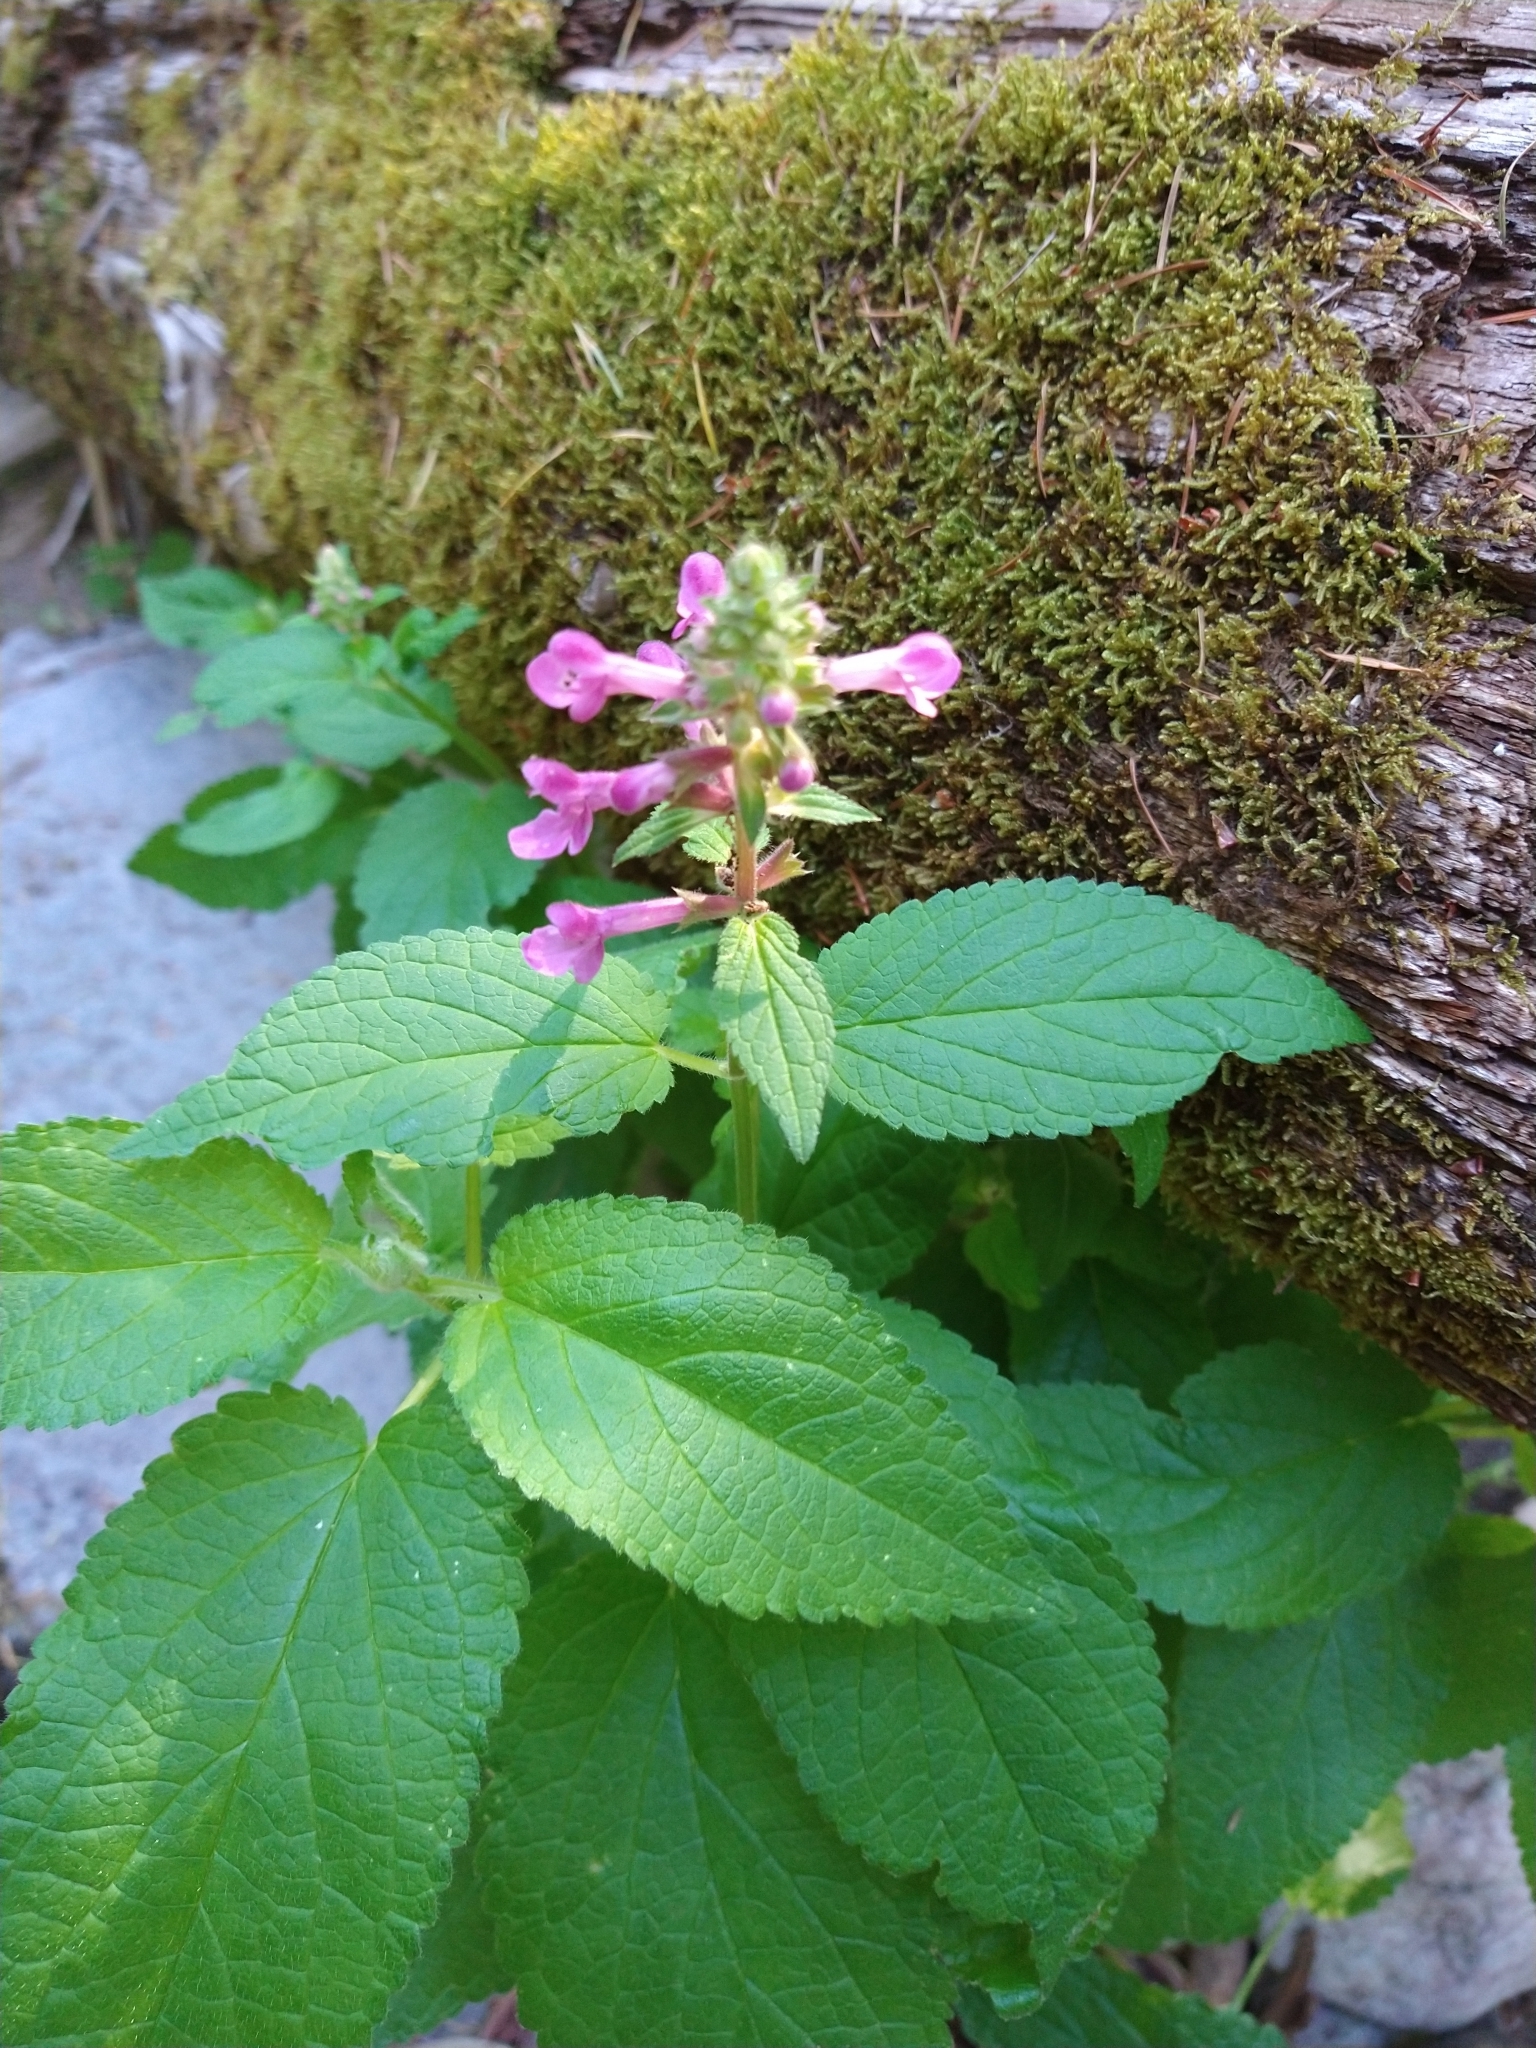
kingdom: Plantae
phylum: Tracheophyta
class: Magnoliopsida
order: Lamiales
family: Lamiaceae
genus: Stachys
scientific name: Stachys chamissonis
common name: Coastal hedge-nettle
